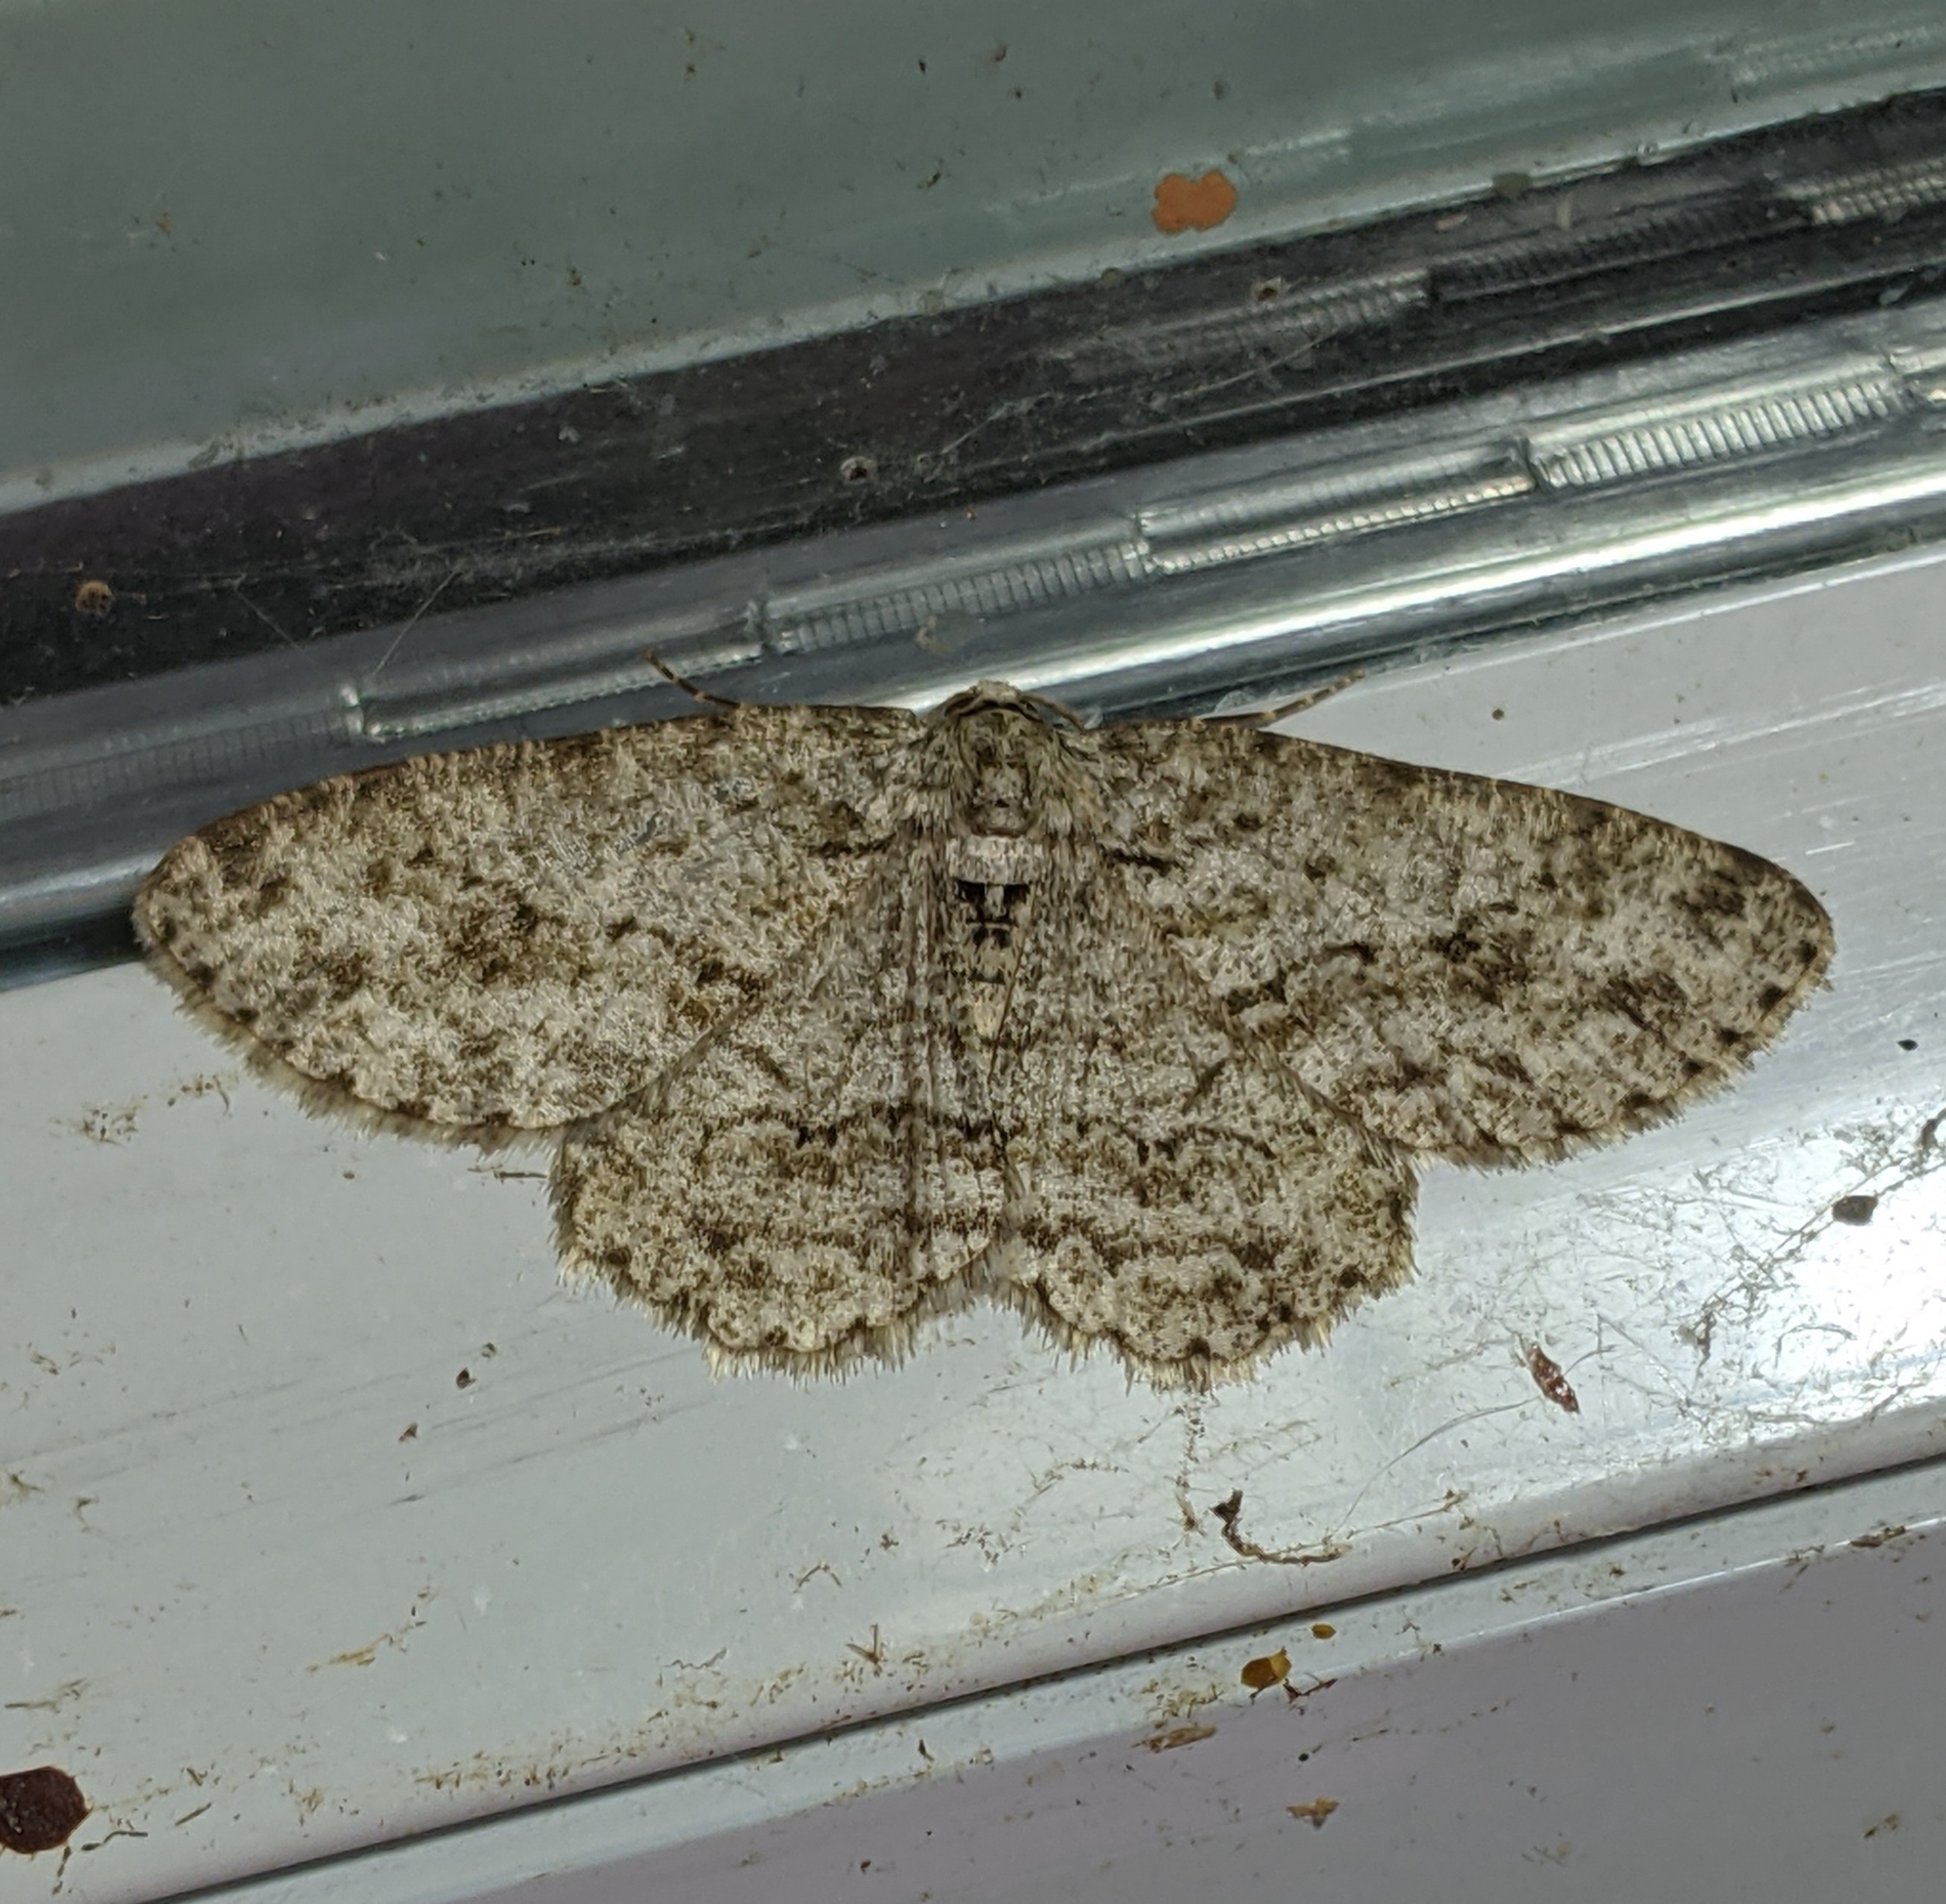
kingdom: Animalia
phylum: Arthropoda
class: Insecta
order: Lepidoptera
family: Geometridae
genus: Ectropis
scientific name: Ectropis crepuscularia
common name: Engrailed
